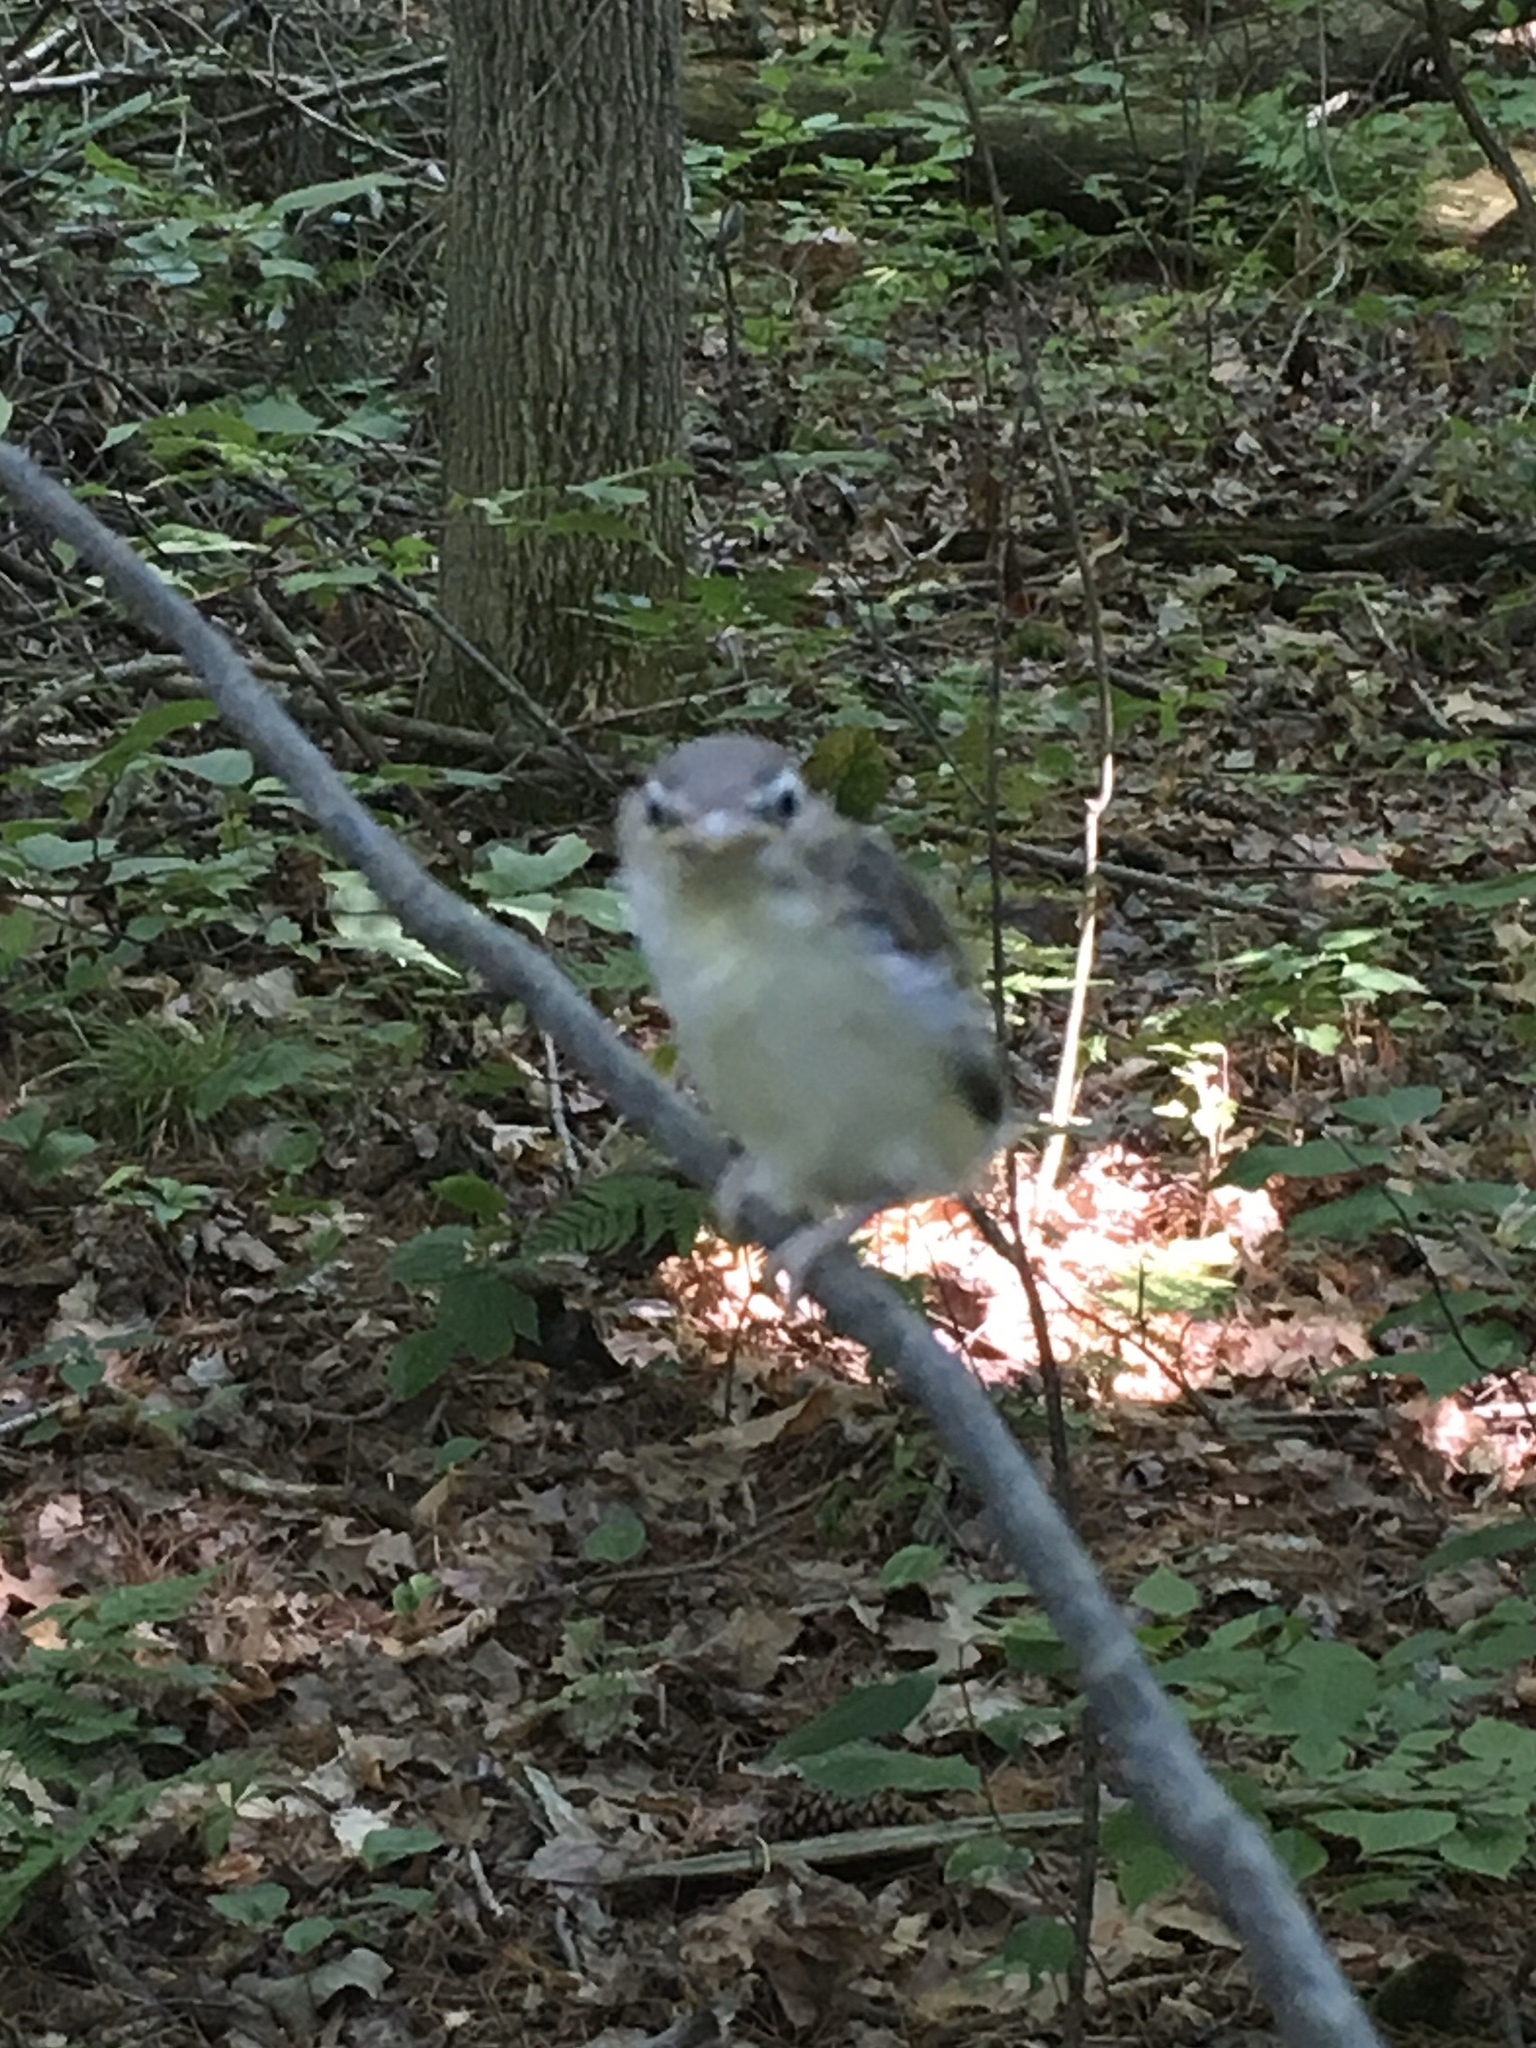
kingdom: Animalia
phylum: Chordata
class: Aves
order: Passeriformes
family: Vireonidae
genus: Vireo
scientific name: Vireo olivaceus
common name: Red-eyed vireo
